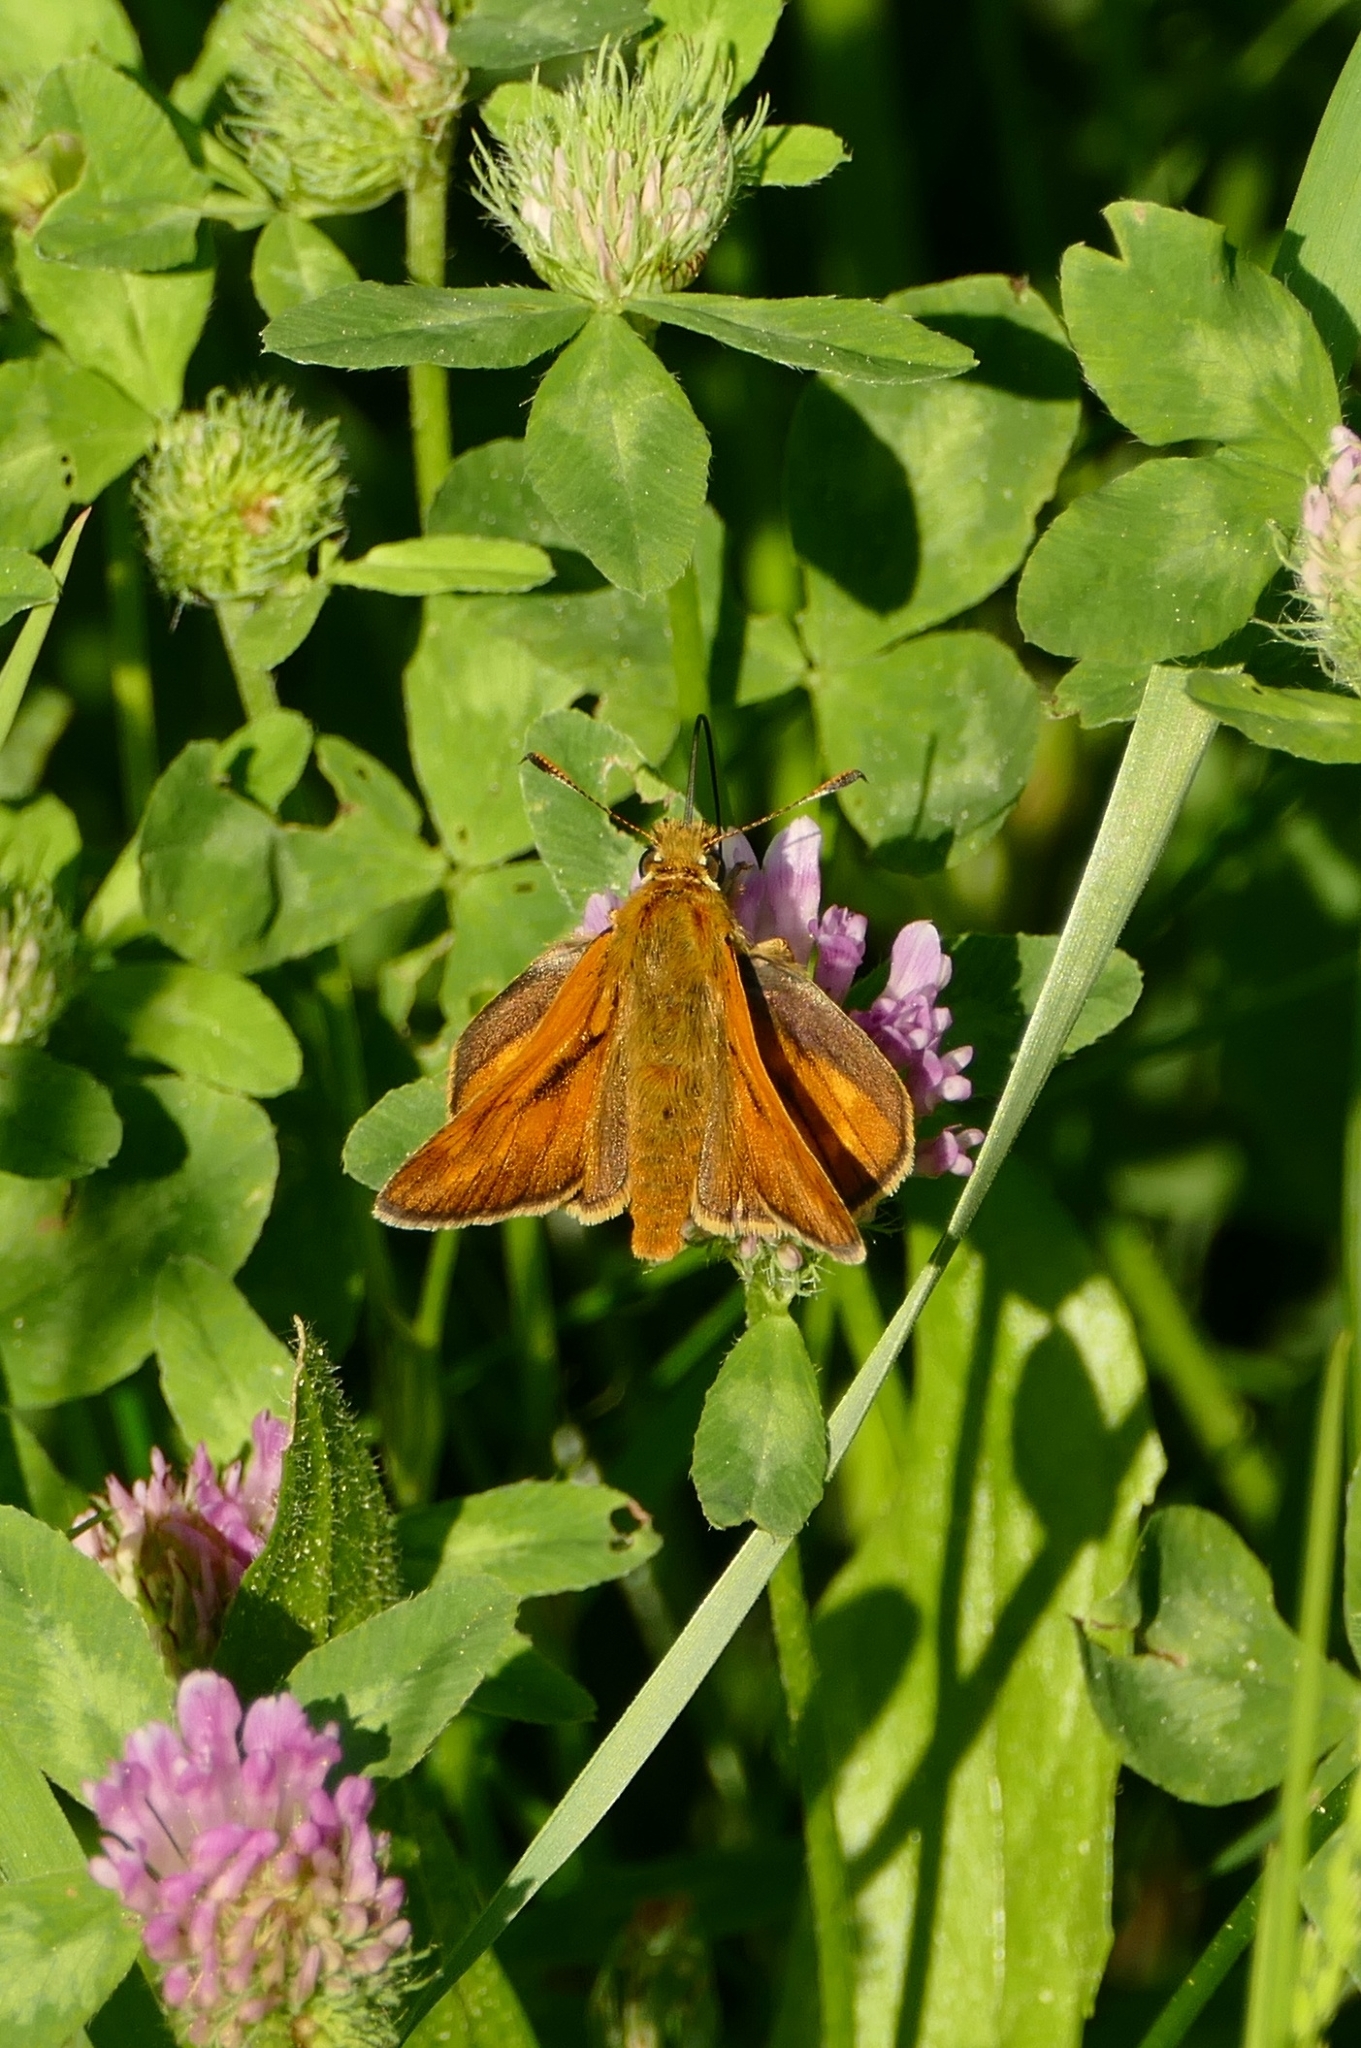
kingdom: Animalia
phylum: Arthropoda
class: Insecta
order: Lepidoptera
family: Hesperiidae
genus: Ochlodes
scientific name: Ochlodes venata
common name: Large skipper
